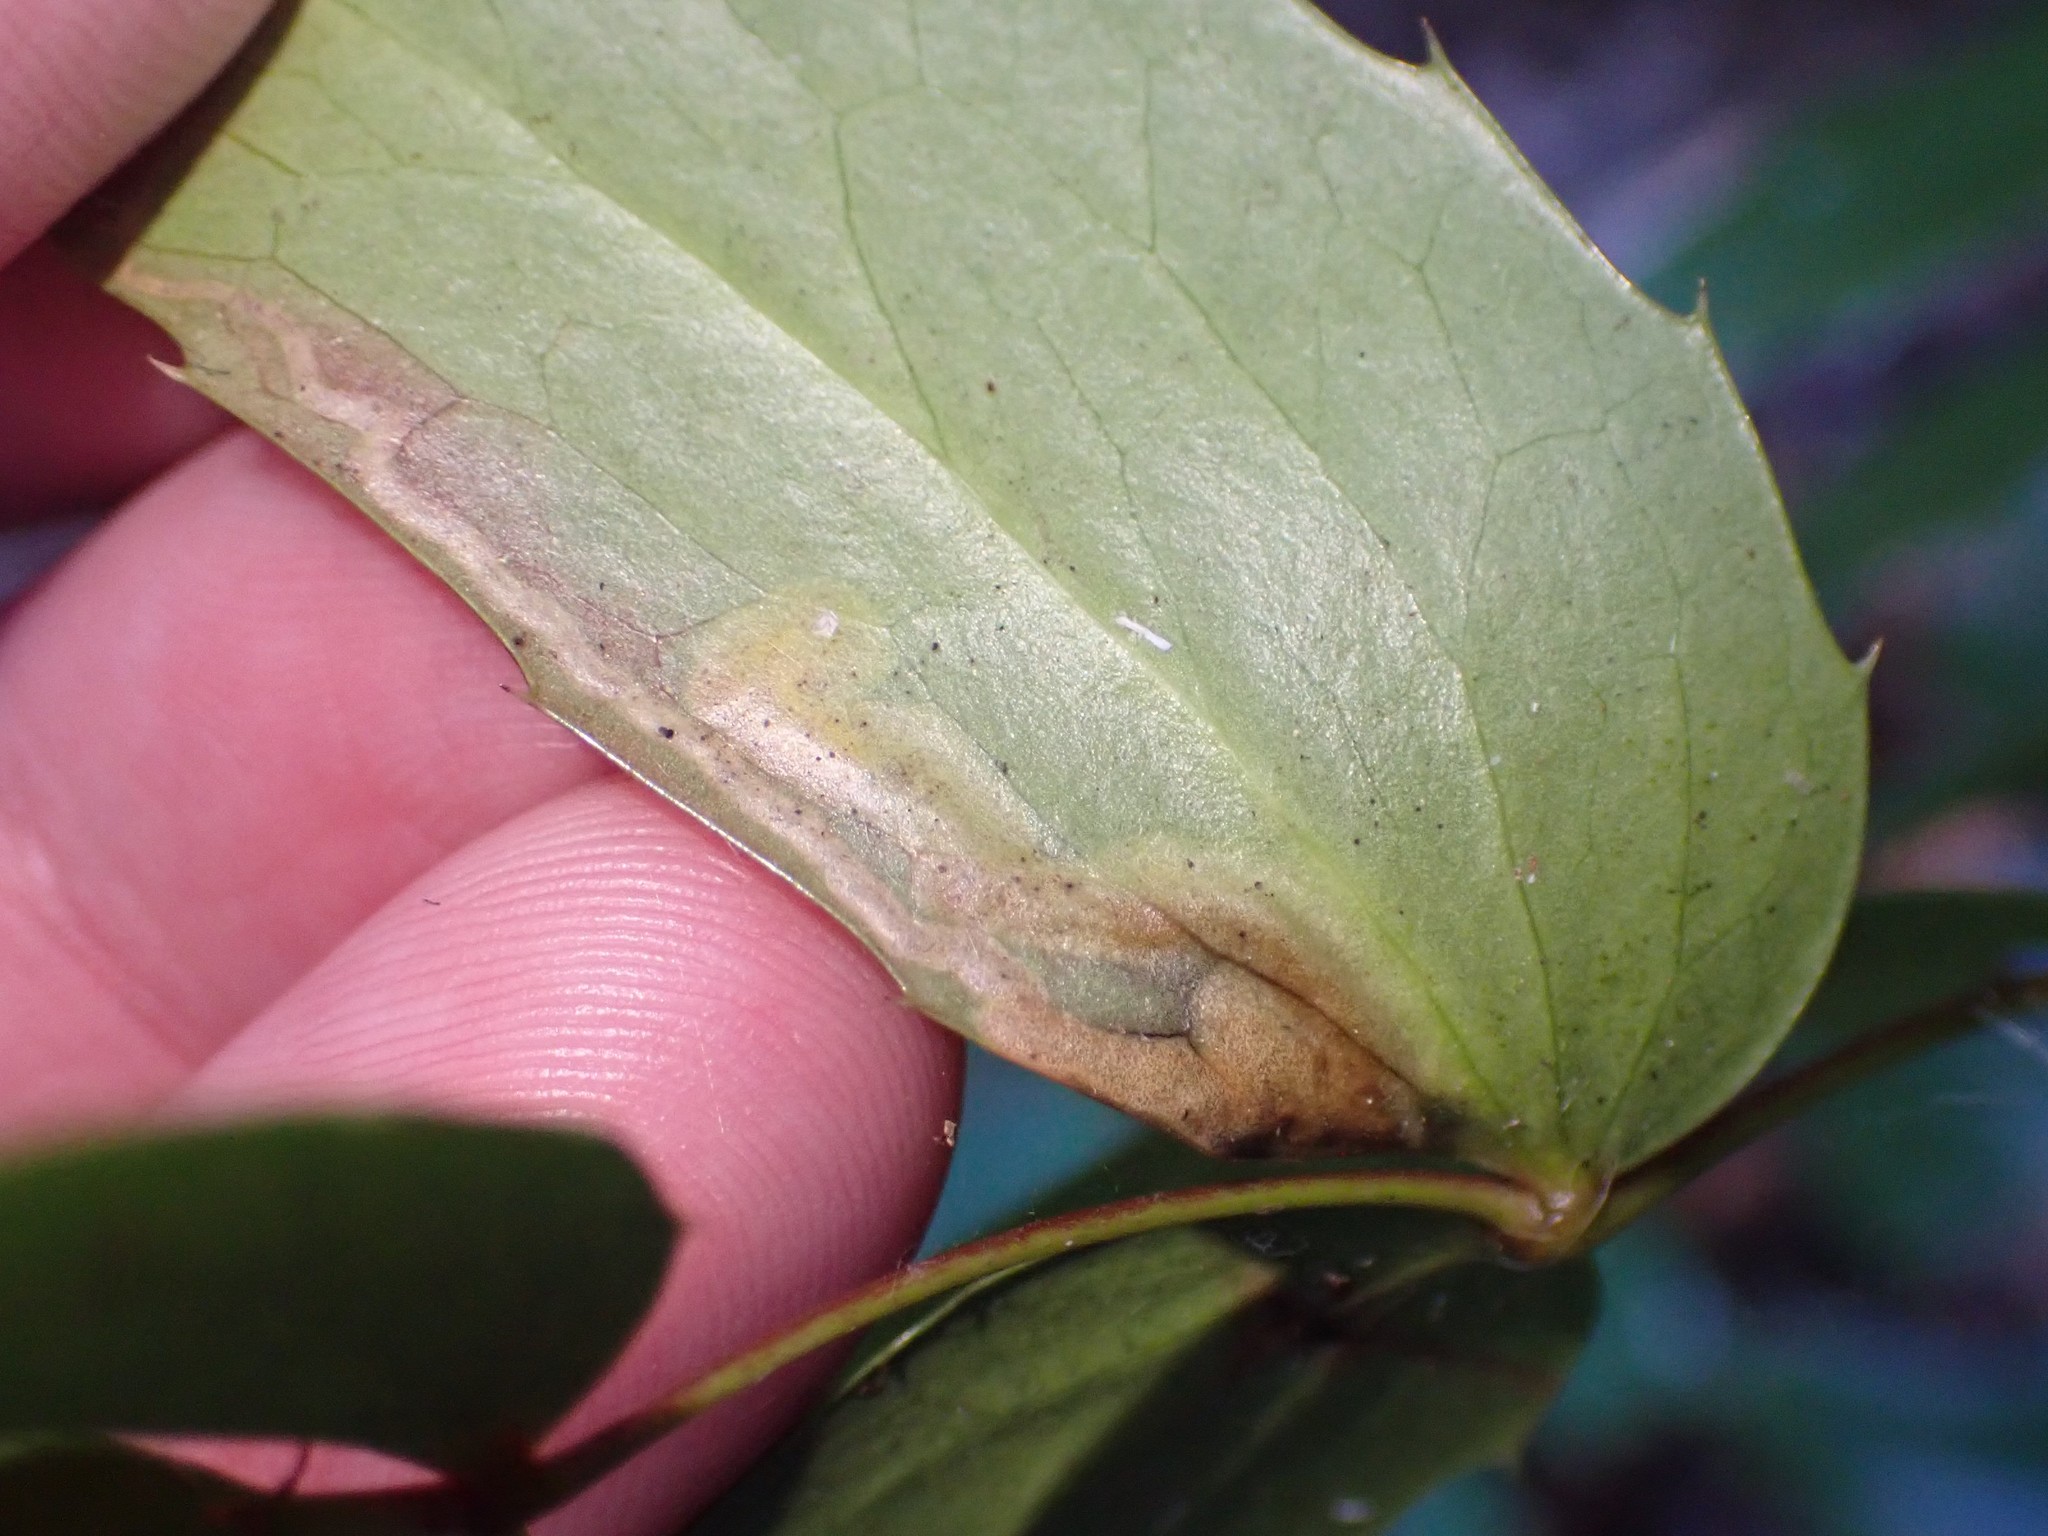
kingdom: Animalia
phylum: Arthropoda
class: Insecta
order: Lepidoptera
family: Nepticulidae
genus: Stigmella
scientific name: Stigmella quercipulchella
